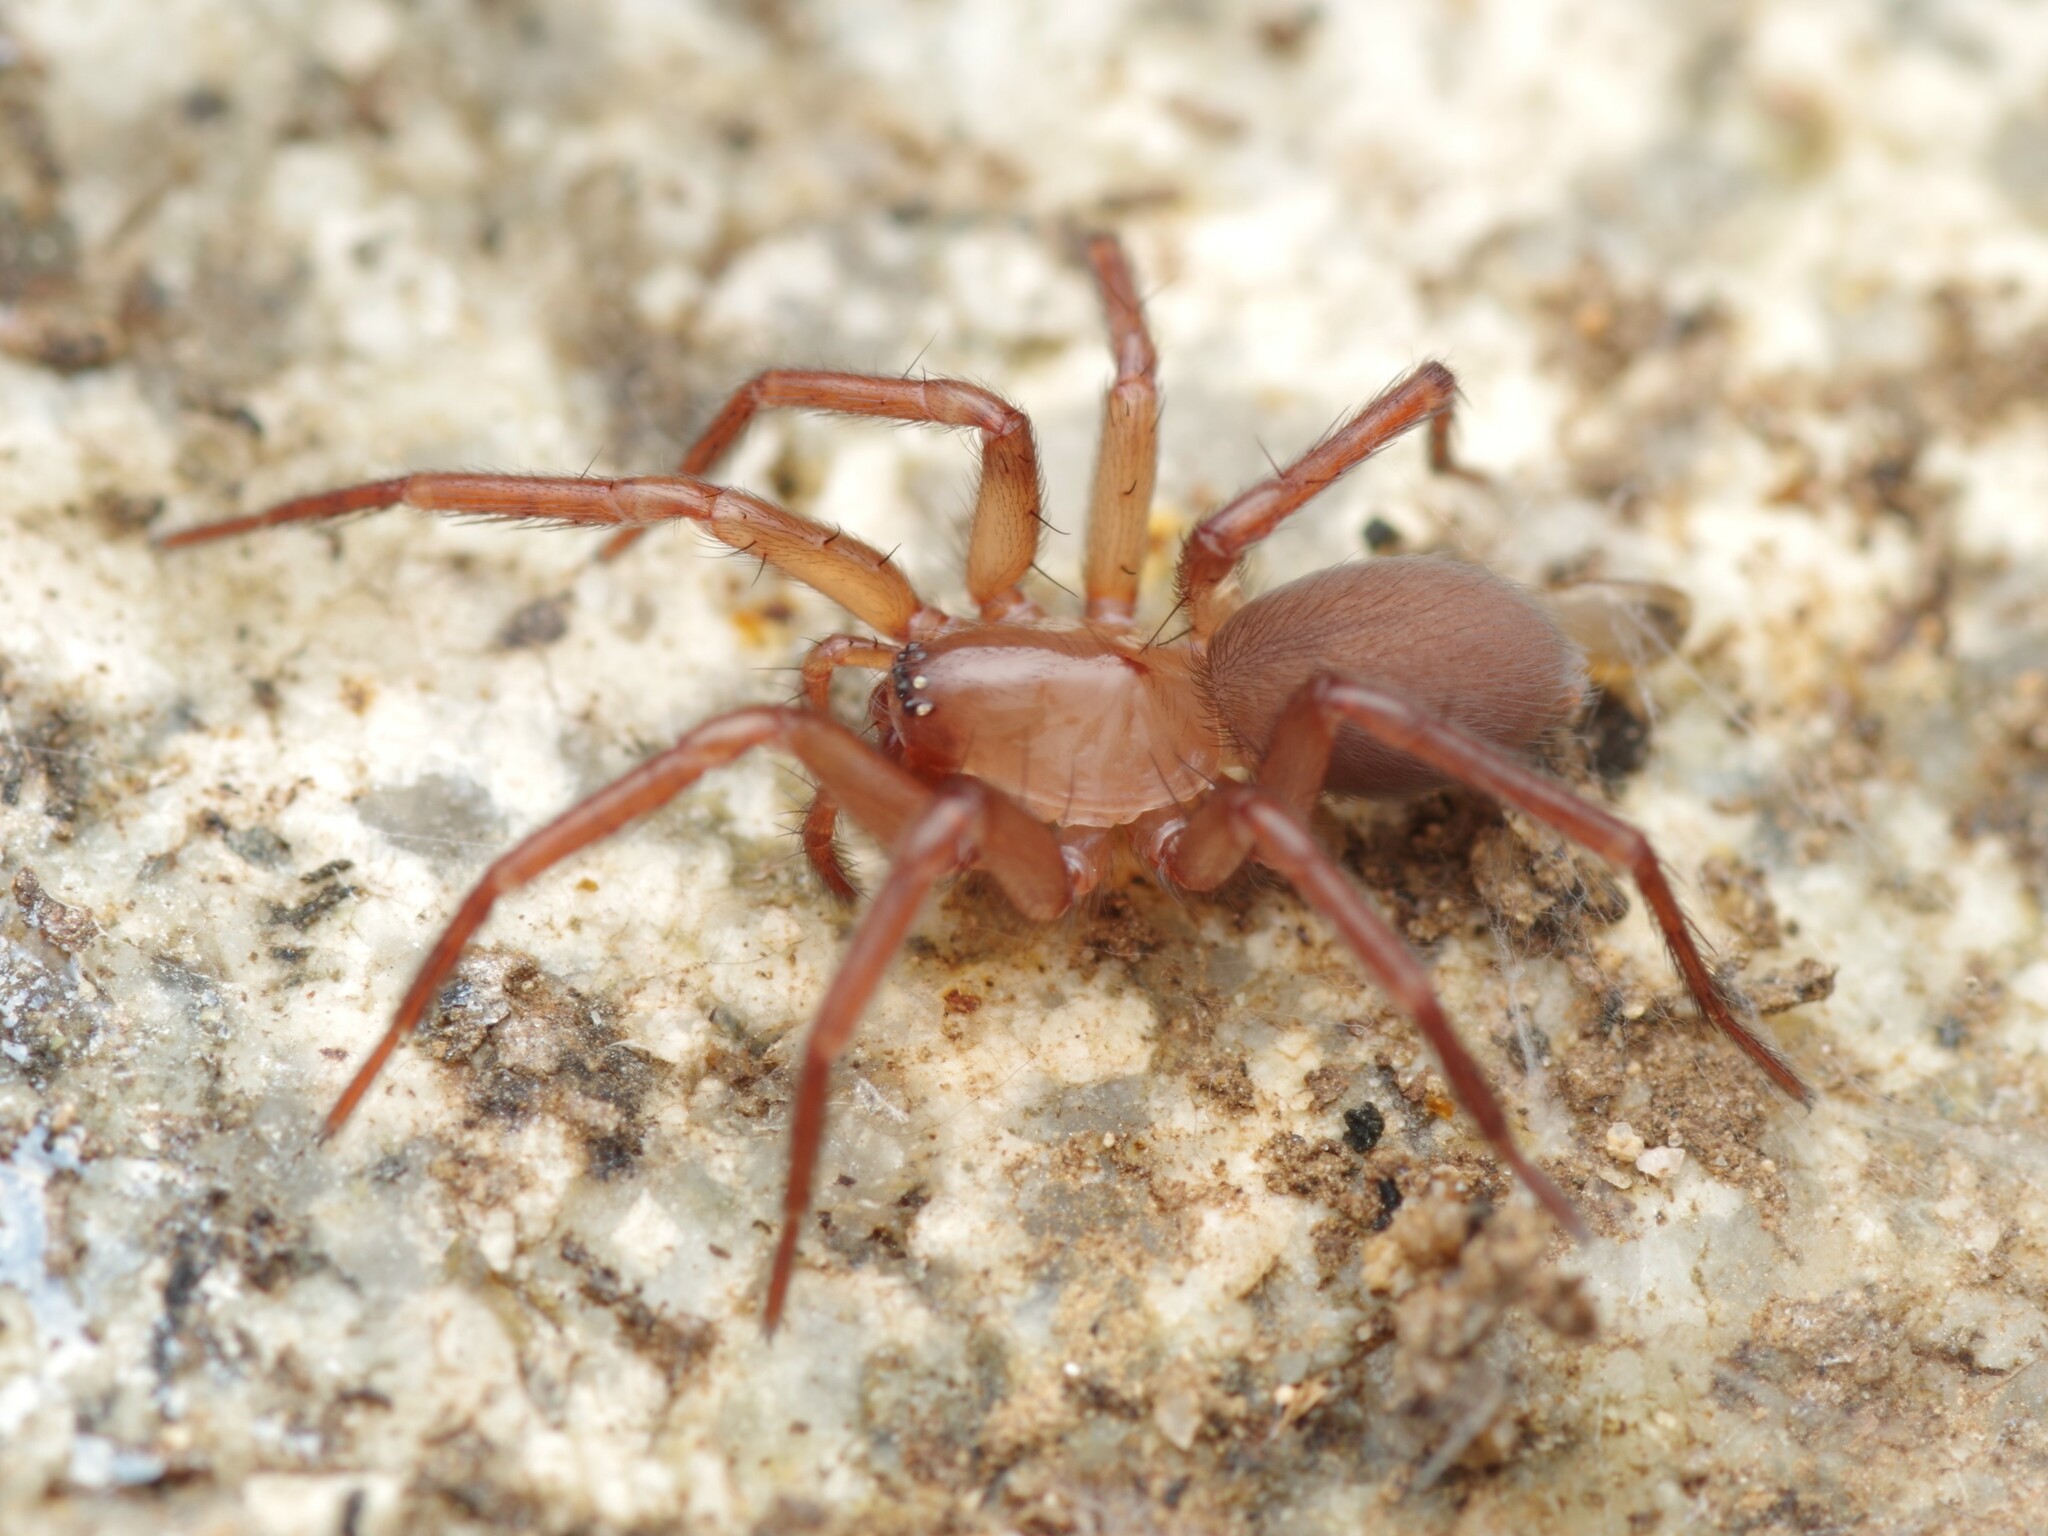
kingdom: Animalia
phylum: Arthropoda
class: Arachnida
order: Araneae
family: Hahniidae
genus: Cicurina
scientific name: Cicurina cicur
